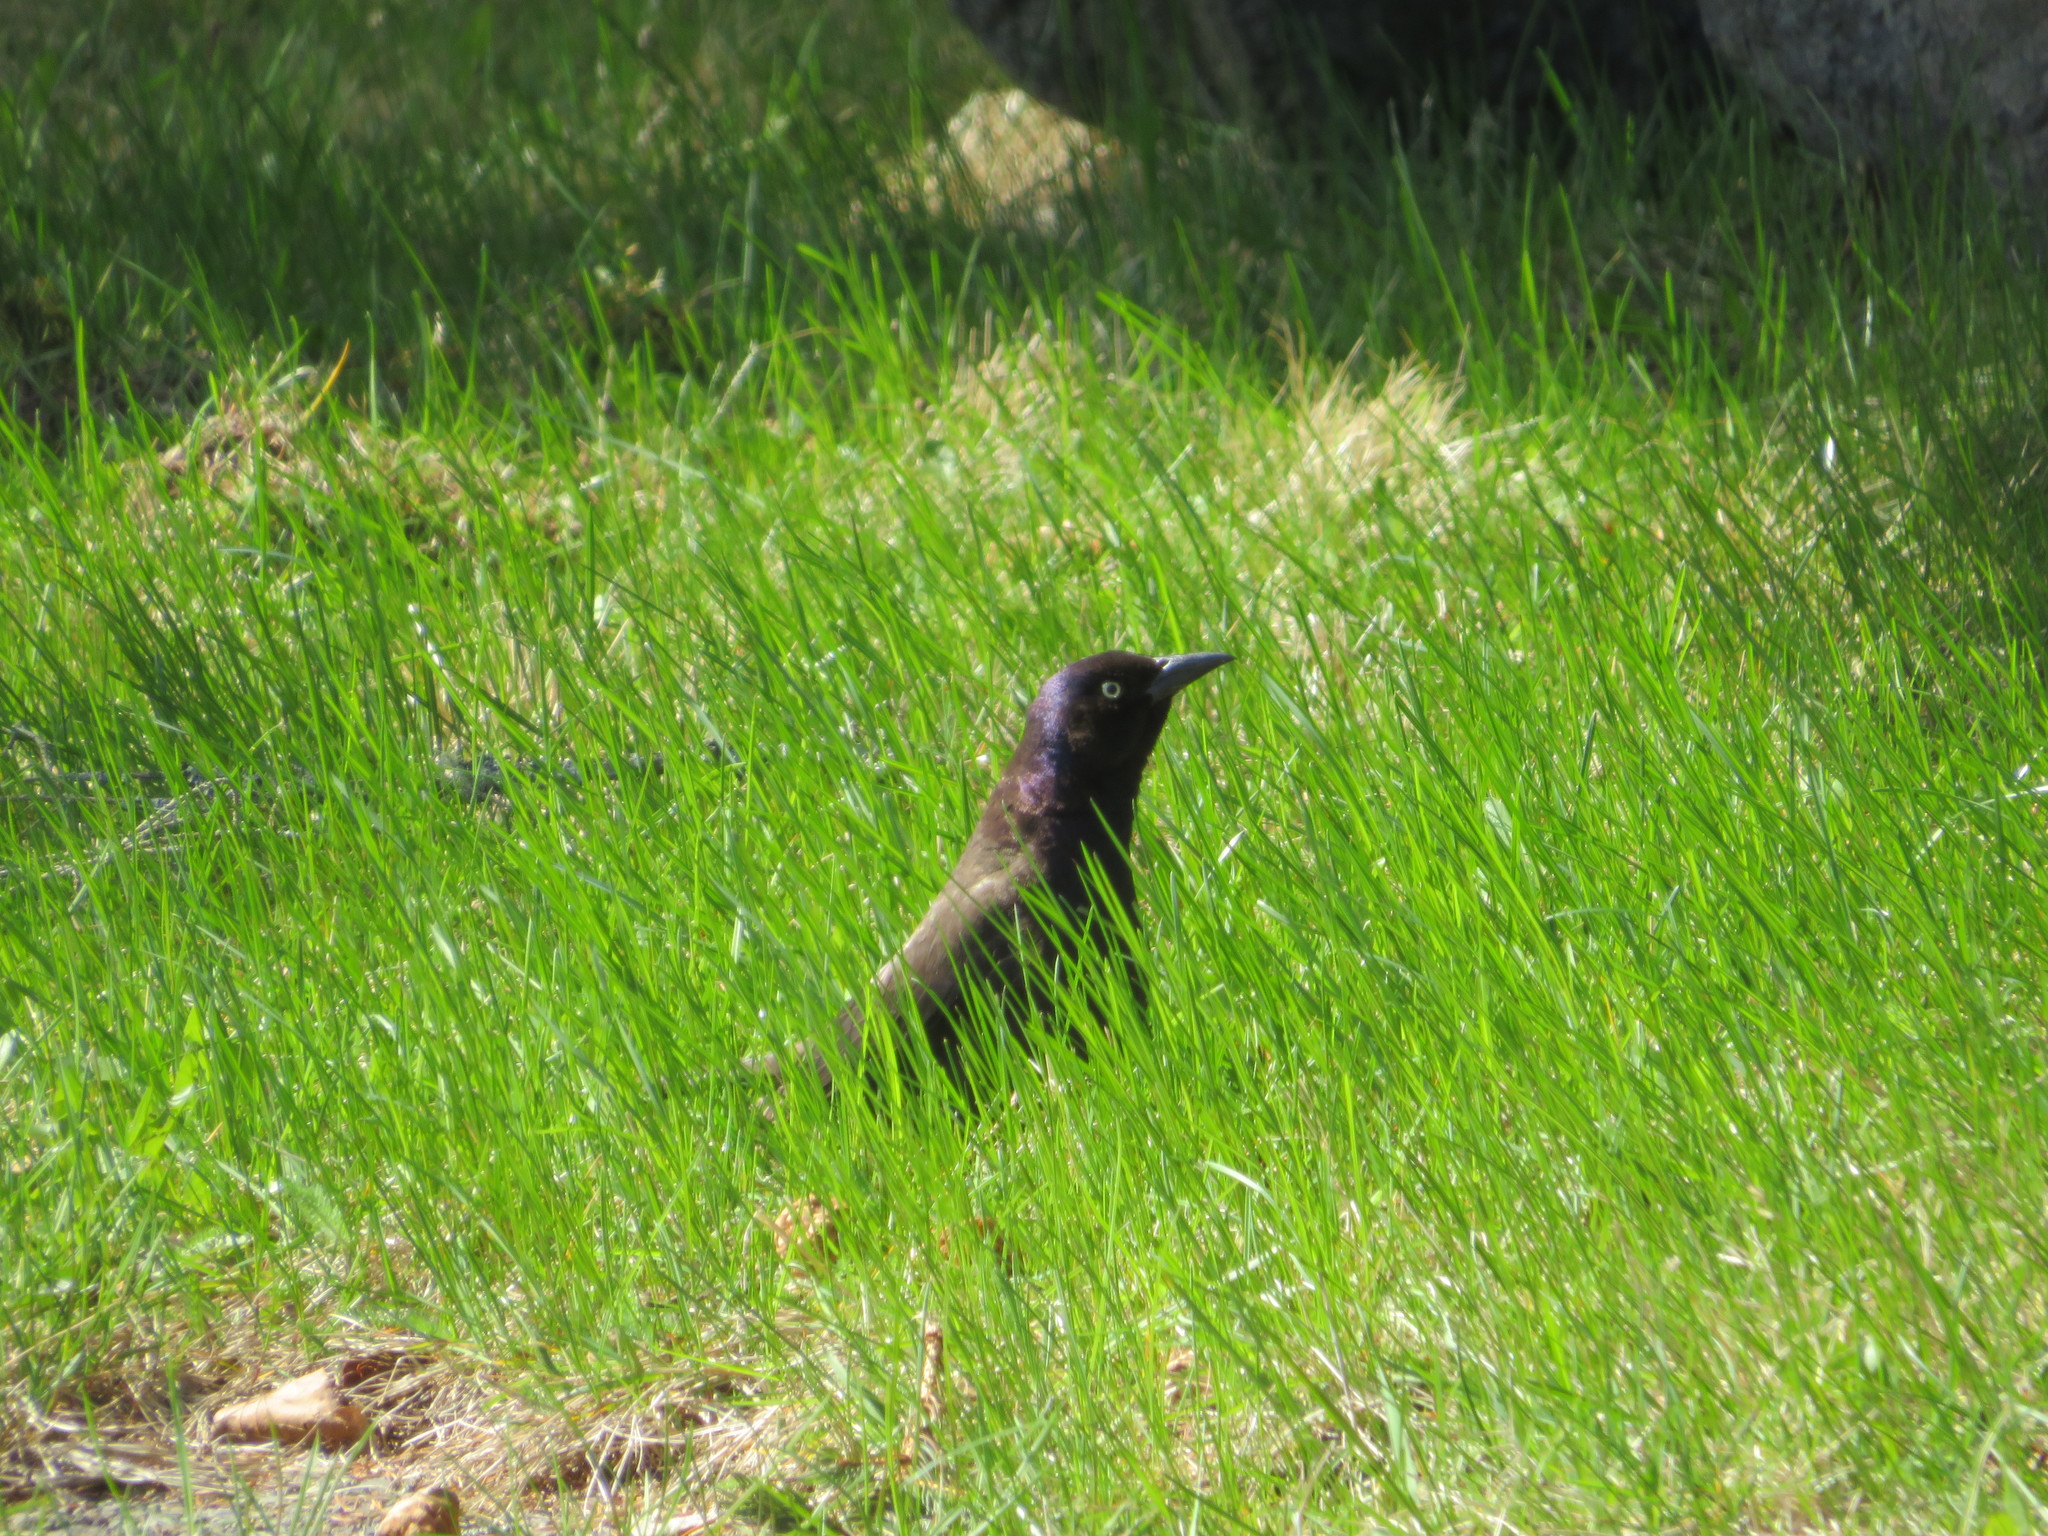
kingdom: Animalia
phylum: Chordata
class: Aves
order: Passeriformes
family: Icteridae
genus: Quiscalus
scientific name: Quiscalus quiscula
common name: Common grackle
